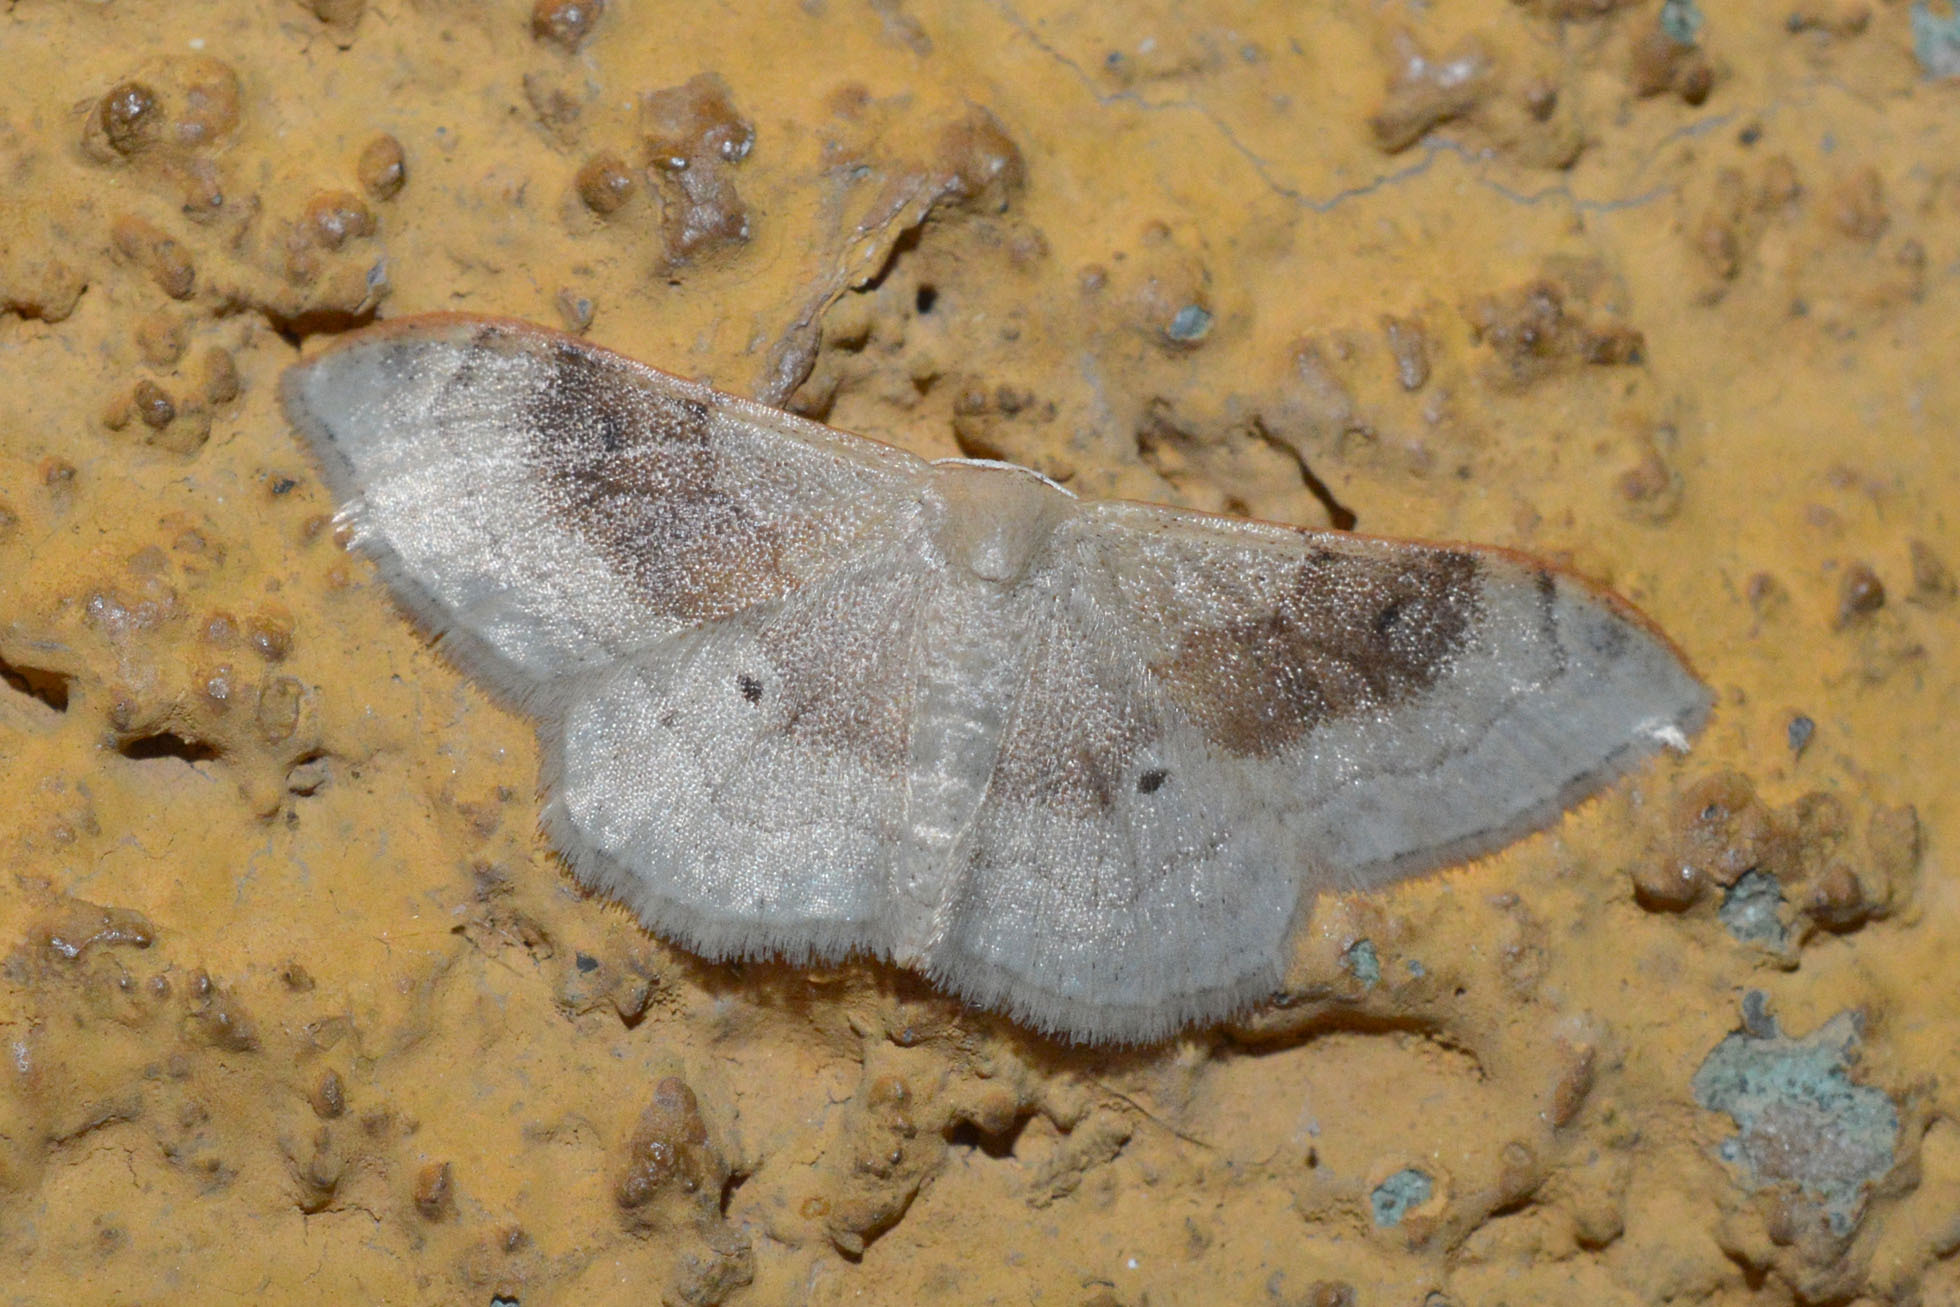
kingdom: Animalia
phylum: Arthropoda
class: Insecta
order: Lepidoptera
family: Geometridae
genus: Idaea
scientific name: Idaea degeneraria
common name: Portland ribbon wave
